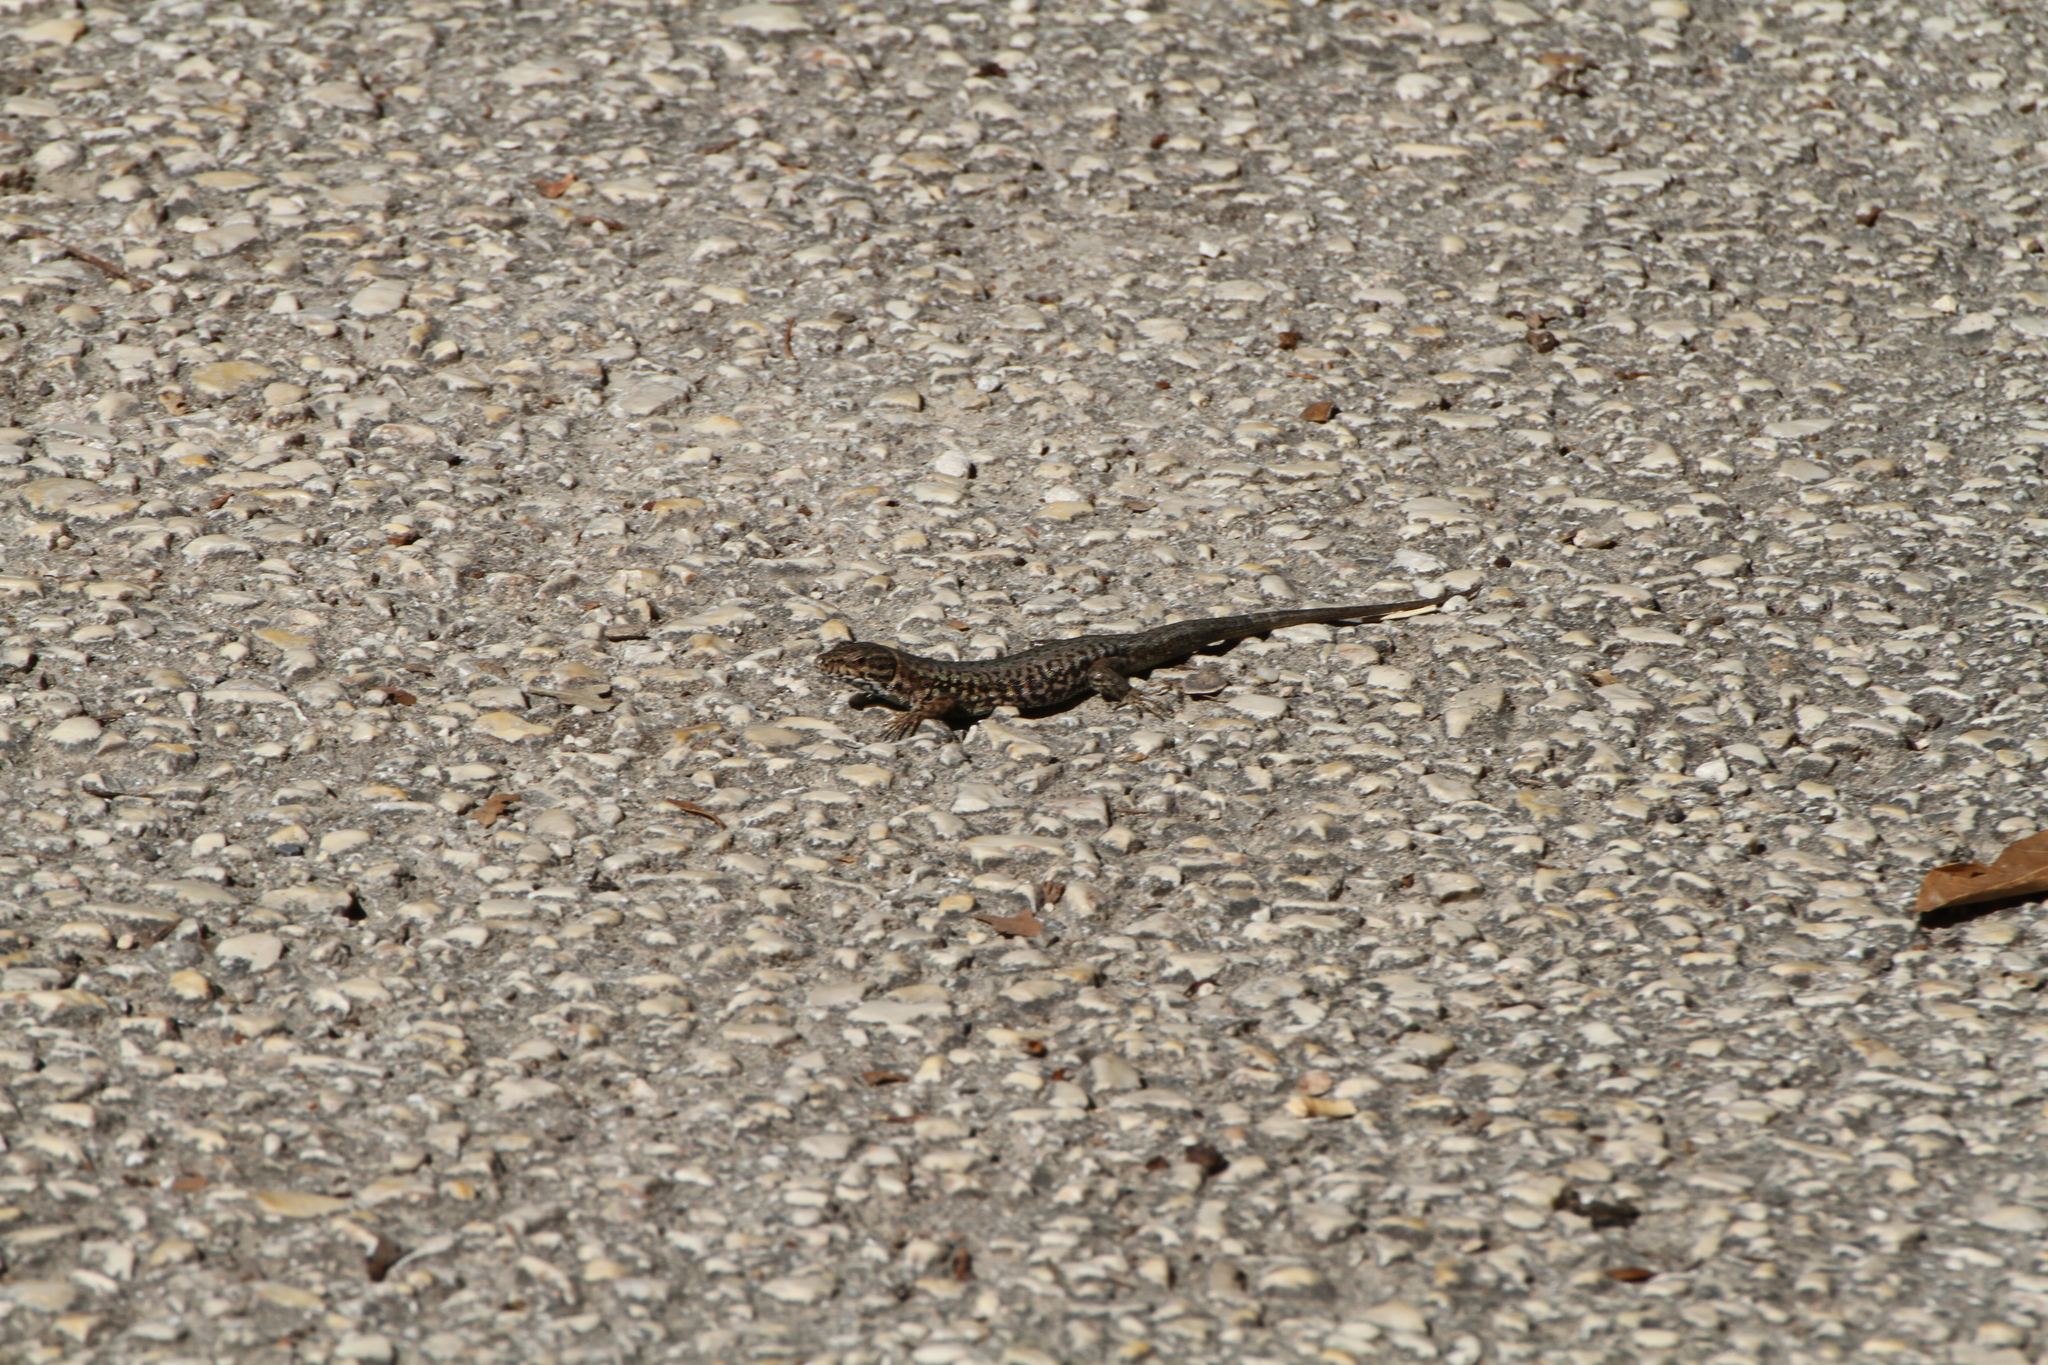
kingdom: Animalia
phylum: Chordata
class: Squamata
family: Lacertidae
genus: Podarcis
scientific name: Podarcis muralis
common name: Common wall lizard
